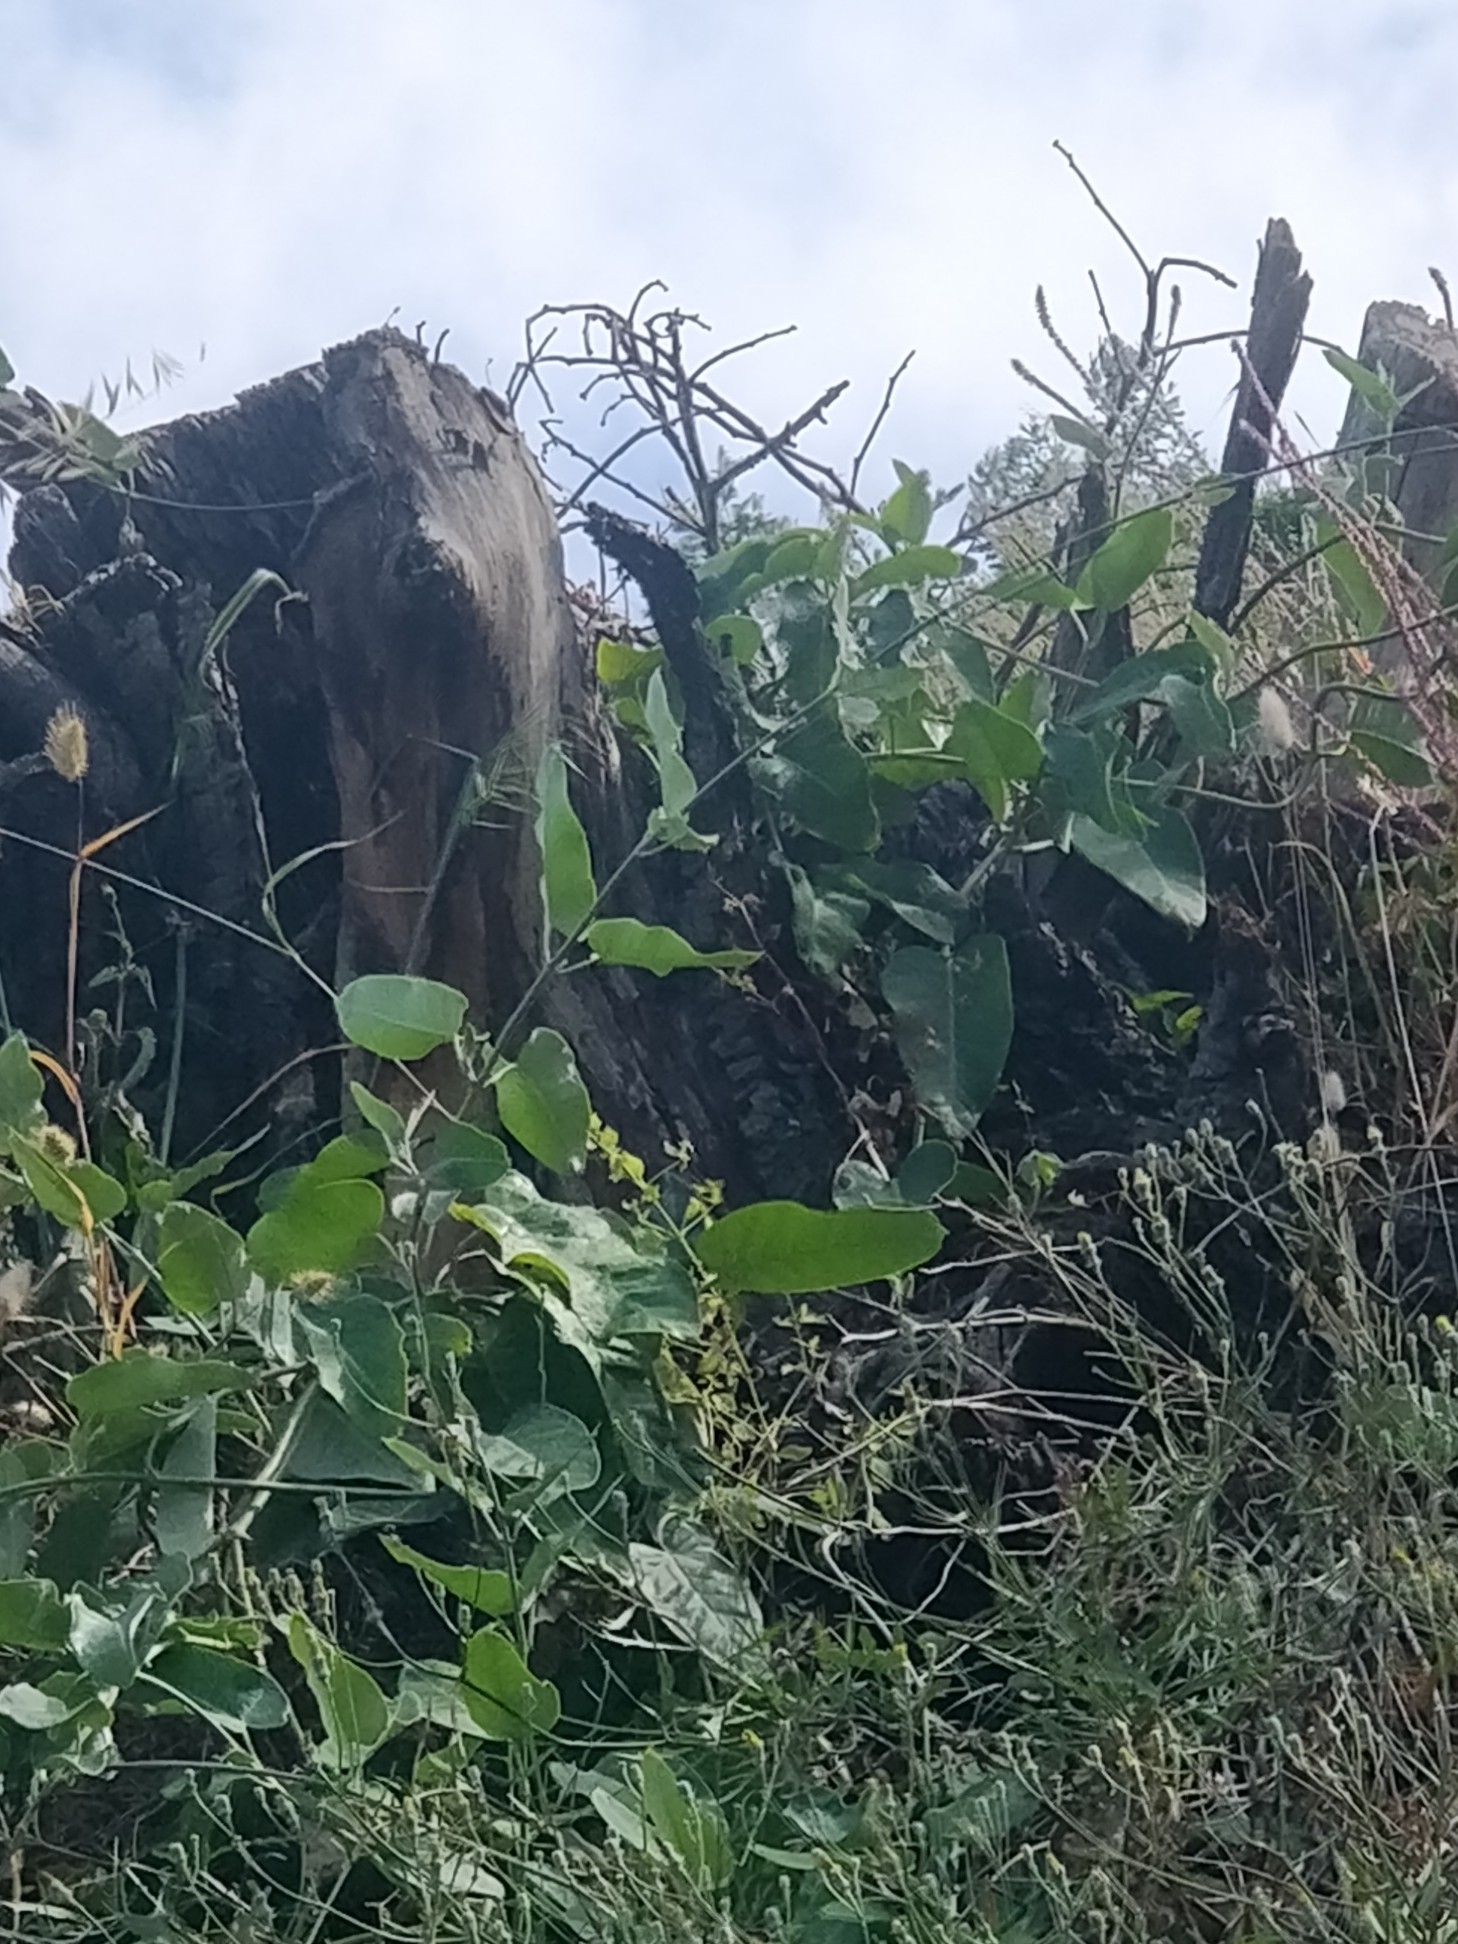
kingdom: Plantae
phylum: Tracheophyta
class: Magnoliopsida
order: Gentianales
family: Apocynaceae
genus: Araujia
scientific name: Araujia sericifera
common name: White bladderflower
